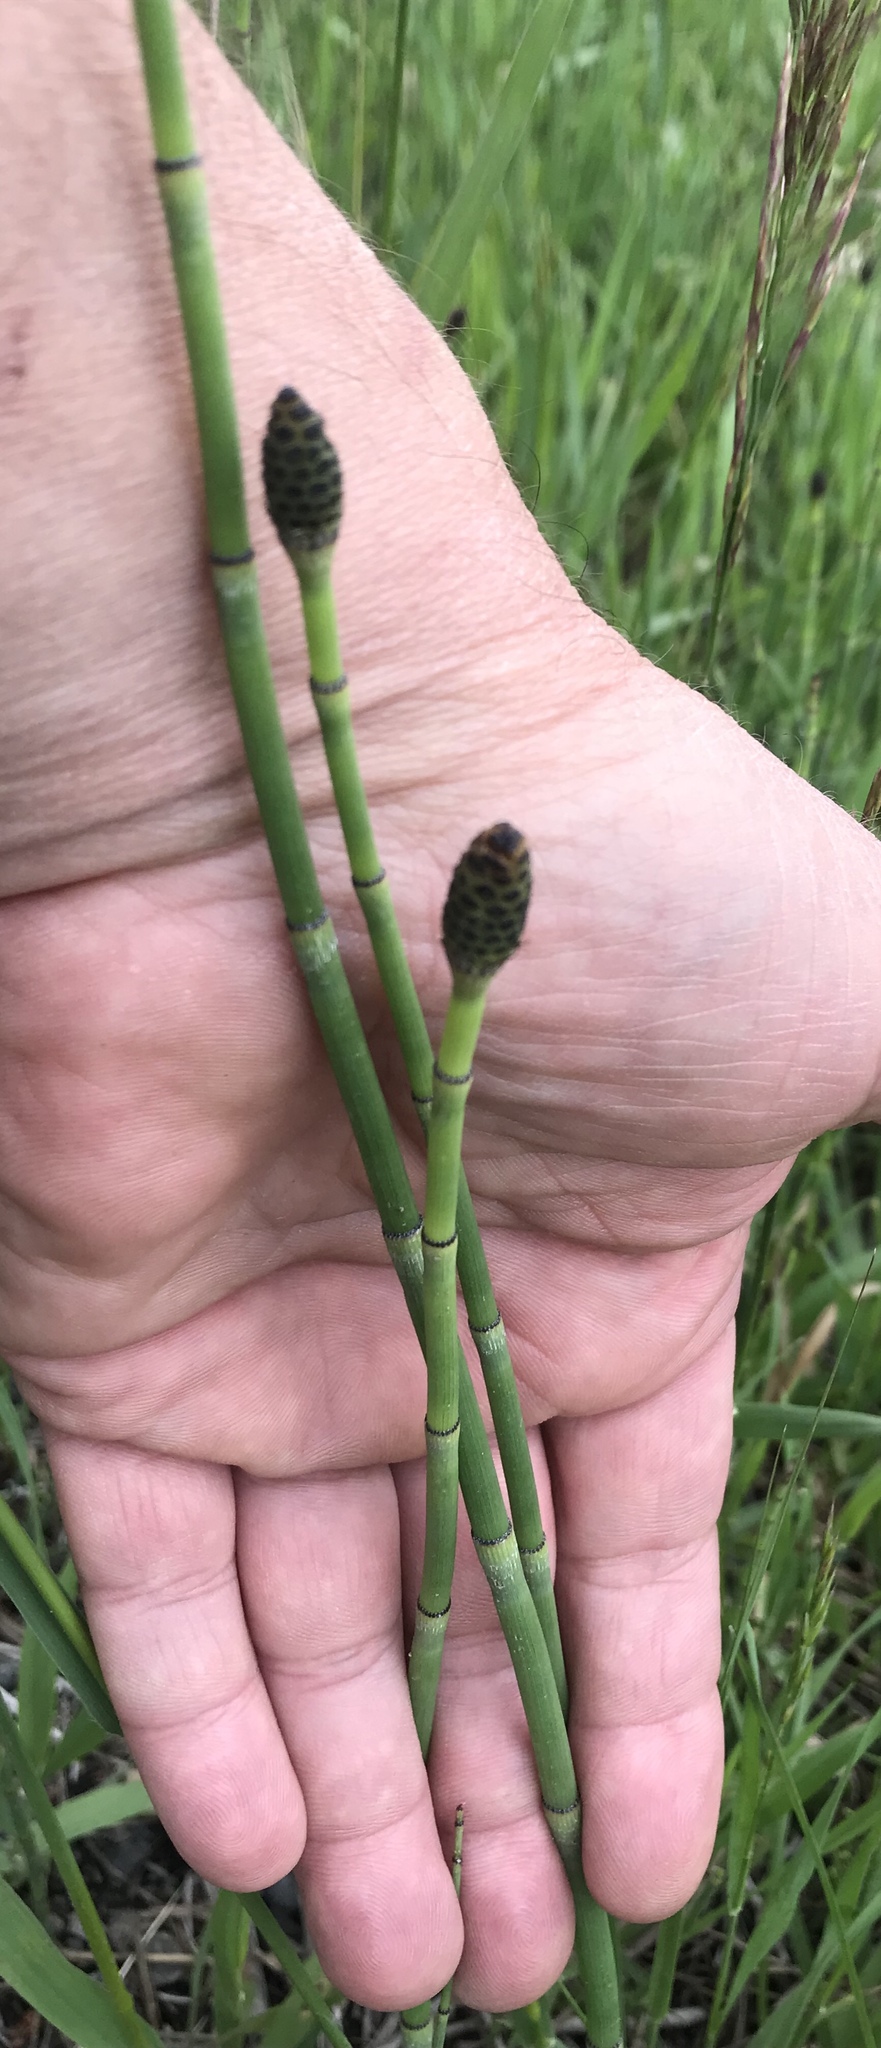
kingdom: Plantae
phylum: Tracheophyta
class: Polypodiopsida
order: Equisetales
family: Equisetaceae
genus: Equisetum
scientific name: Equisetum praealtum
